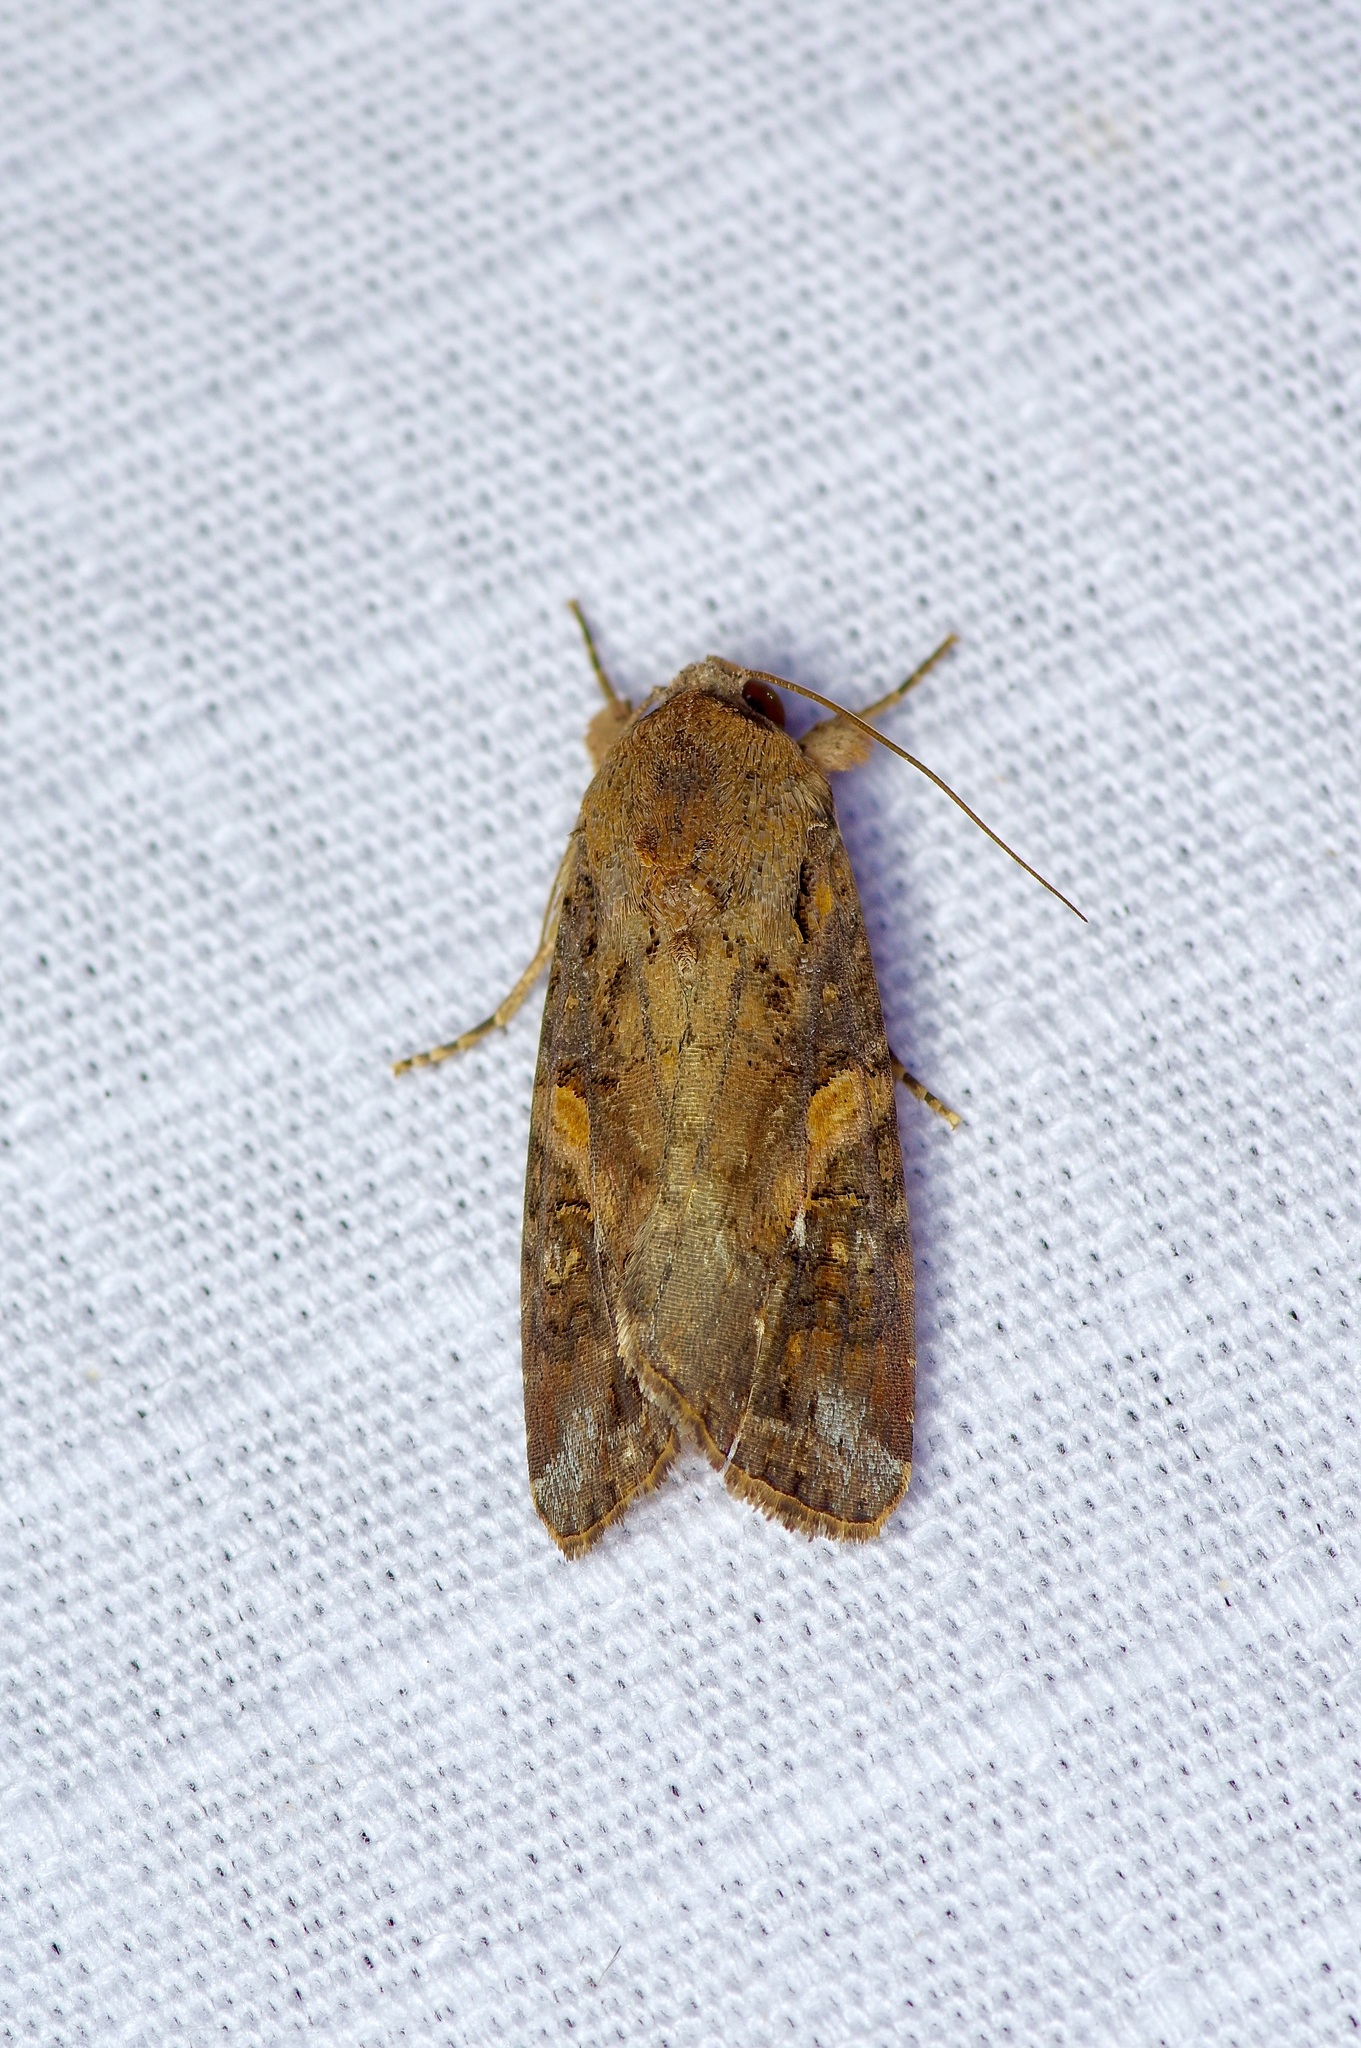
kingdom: Animalia
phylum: Arthropoda
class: Insecta
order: Lepidoptera
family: Noctuidae
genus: Spodoptera
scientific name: Spodoptera frugiperda
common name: Fall armyworm
